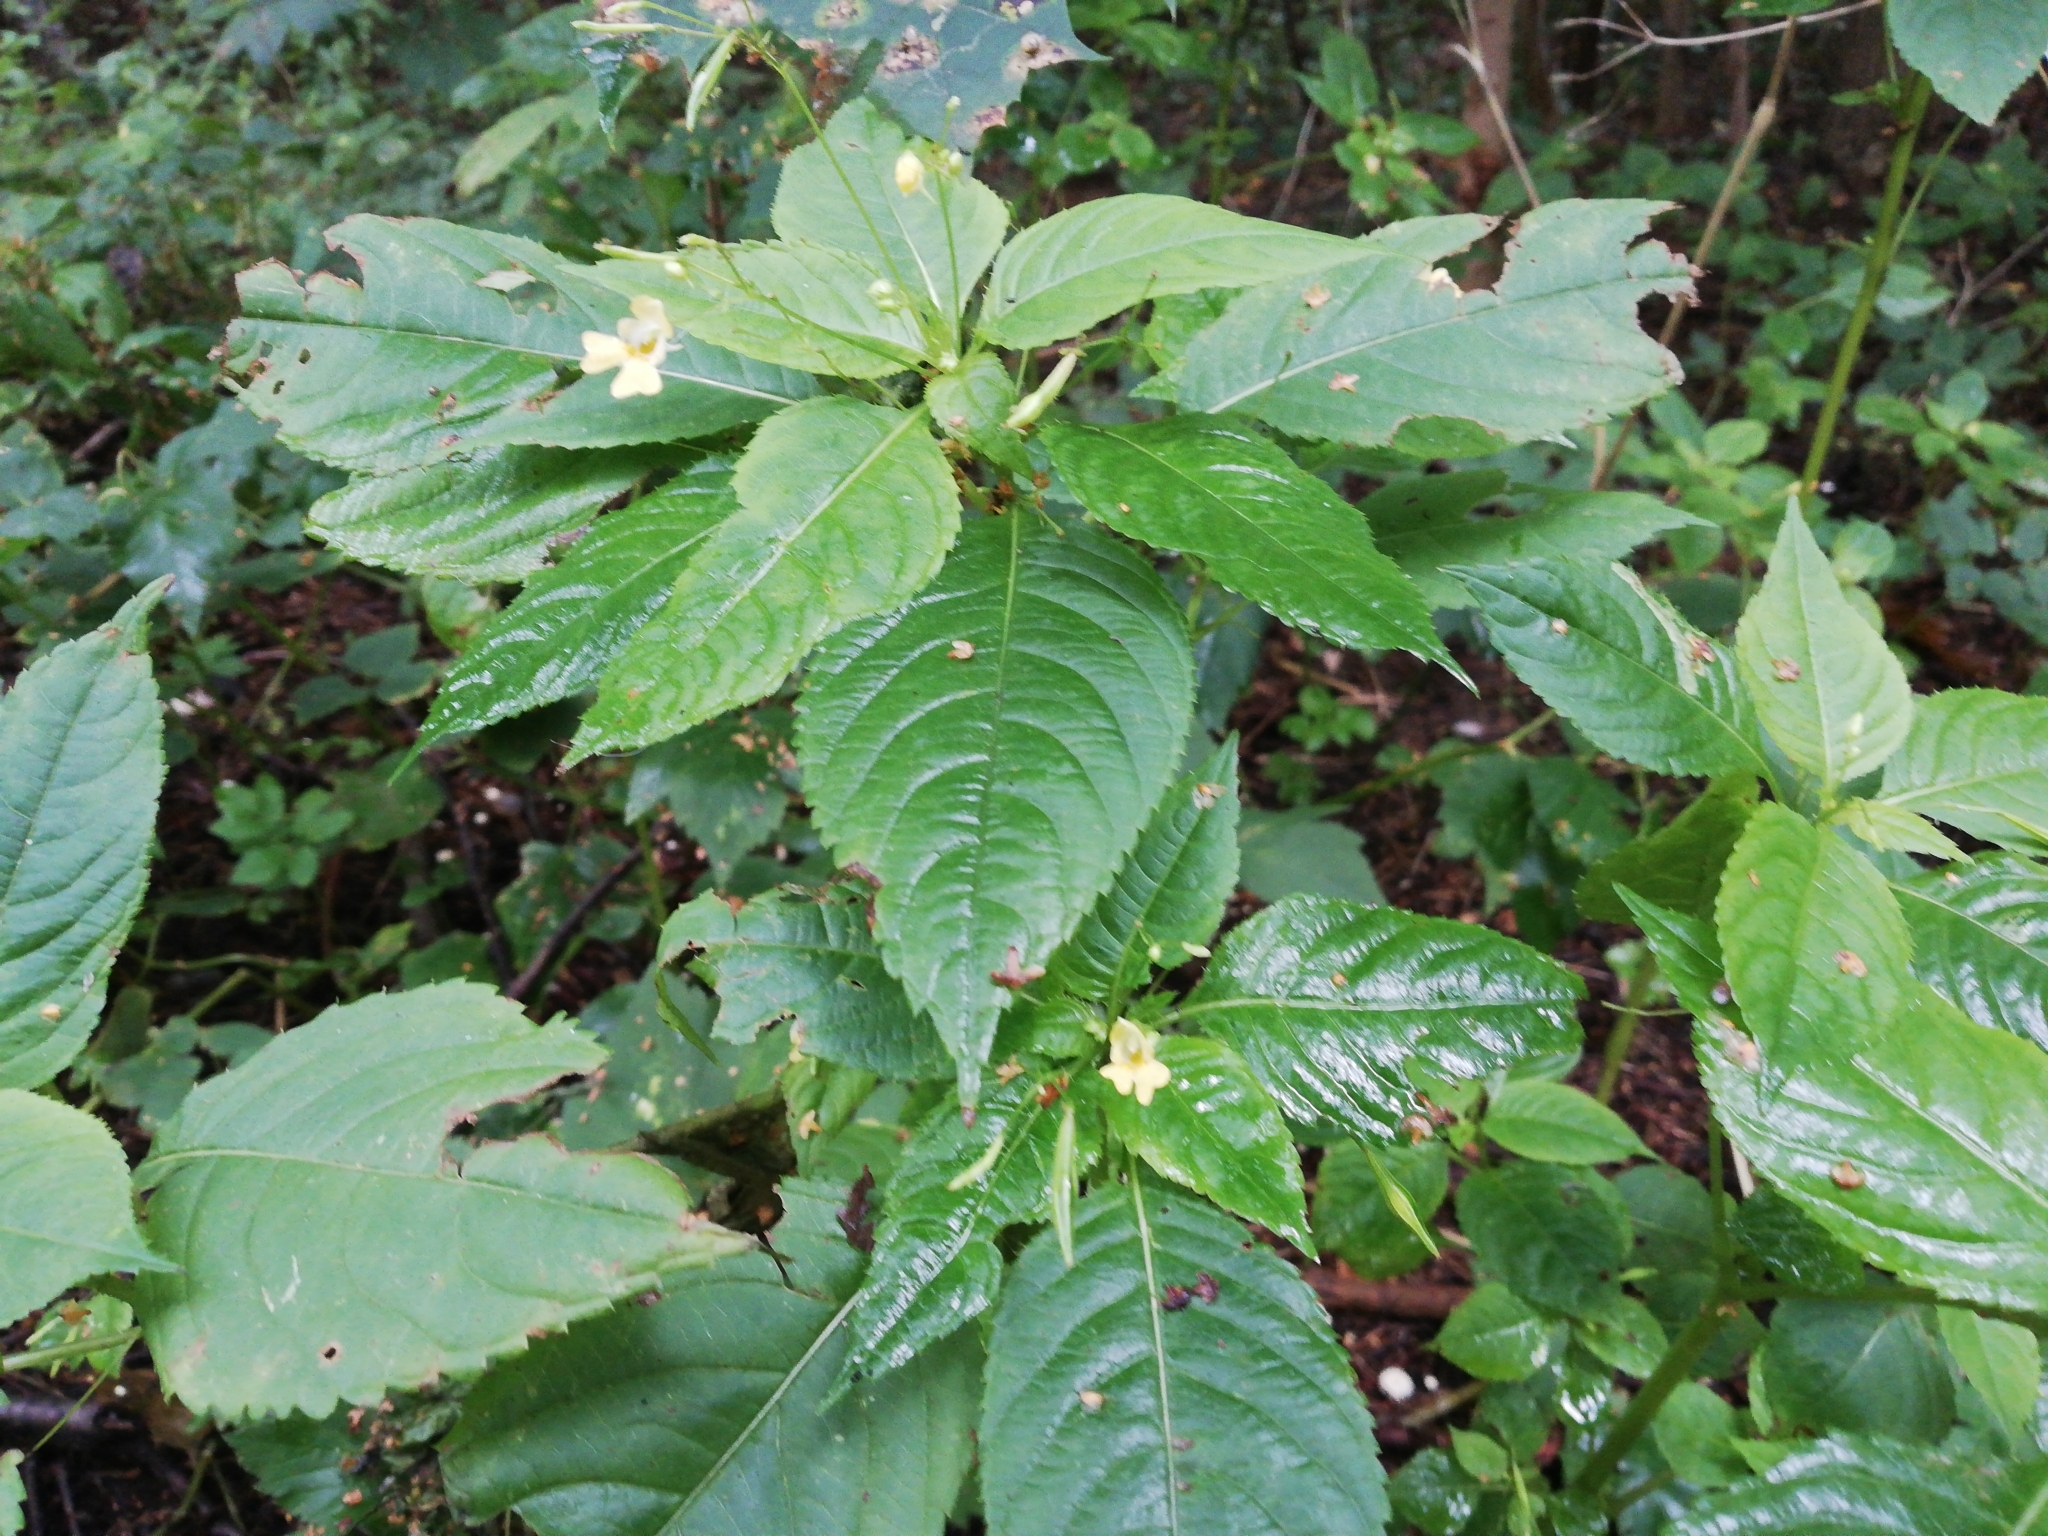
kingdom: Plantae
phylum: Tracheophyta
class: Magnoliopsida
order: Ericales
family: Balsaminaceae
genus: Impatiens
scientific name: Impatiens parviflora
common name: Small balsam
